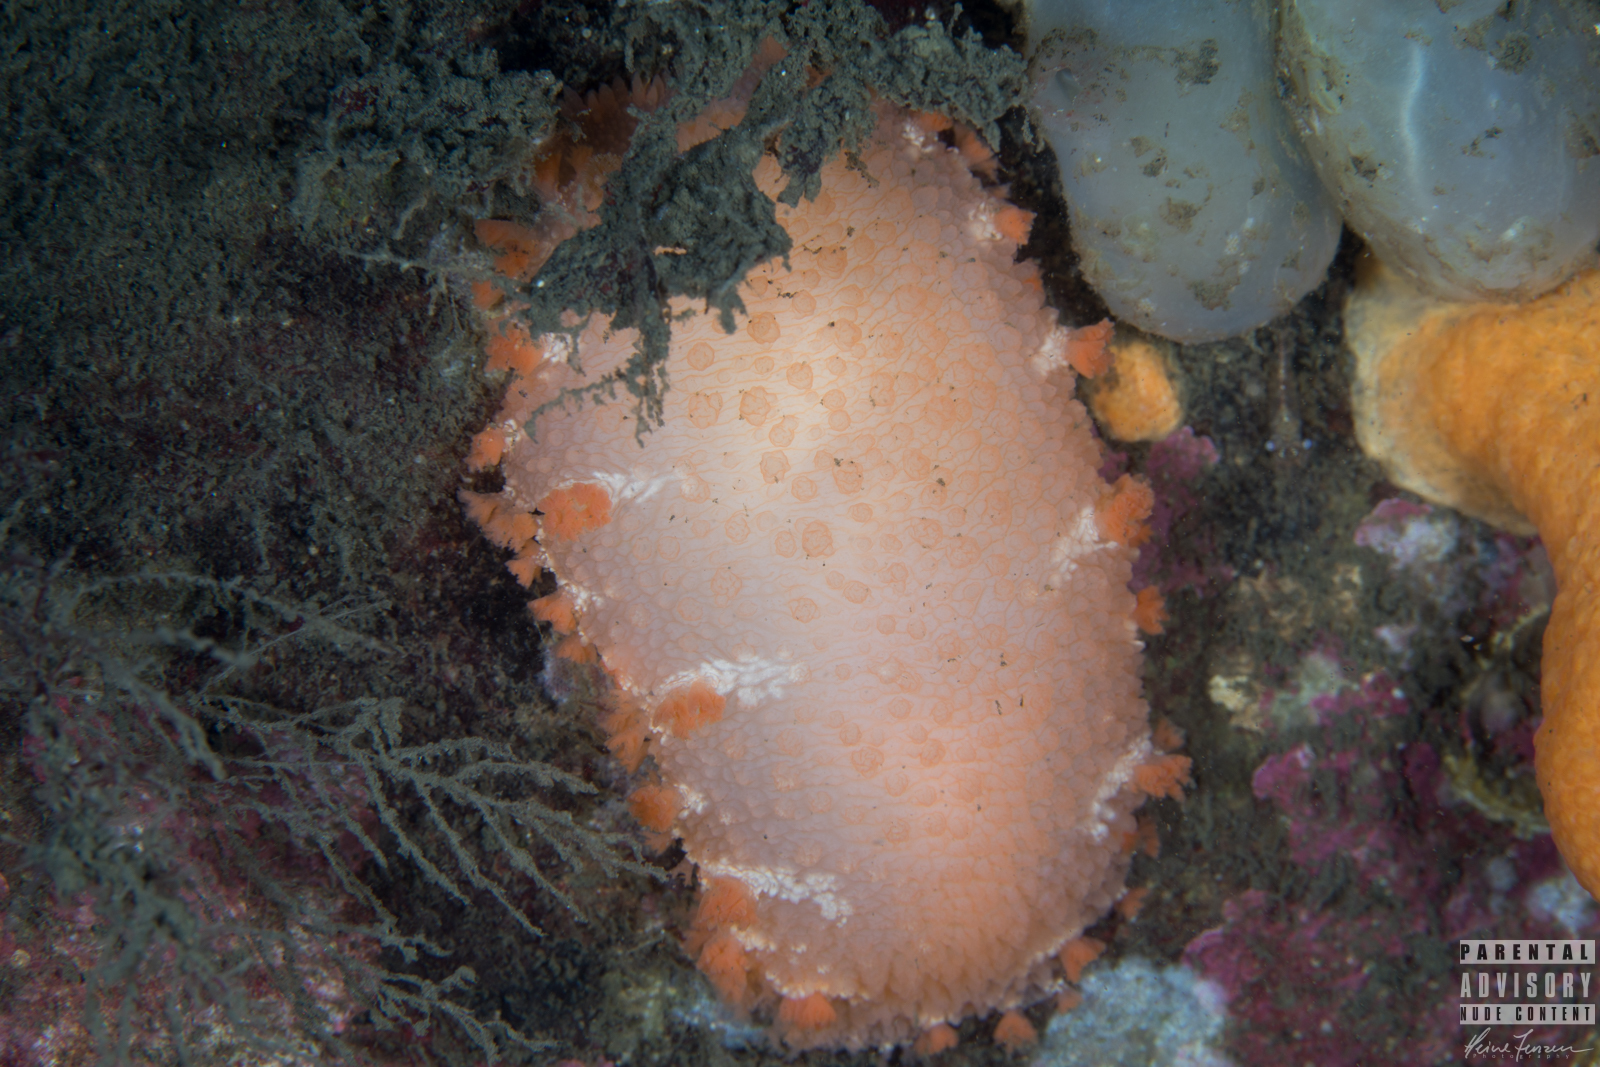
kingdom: Animalia
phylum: Mollusca
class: Gastropoda
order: Nudibranchia
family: Tritoniidae
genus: Tritonia
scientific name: Tritonia hombergii
